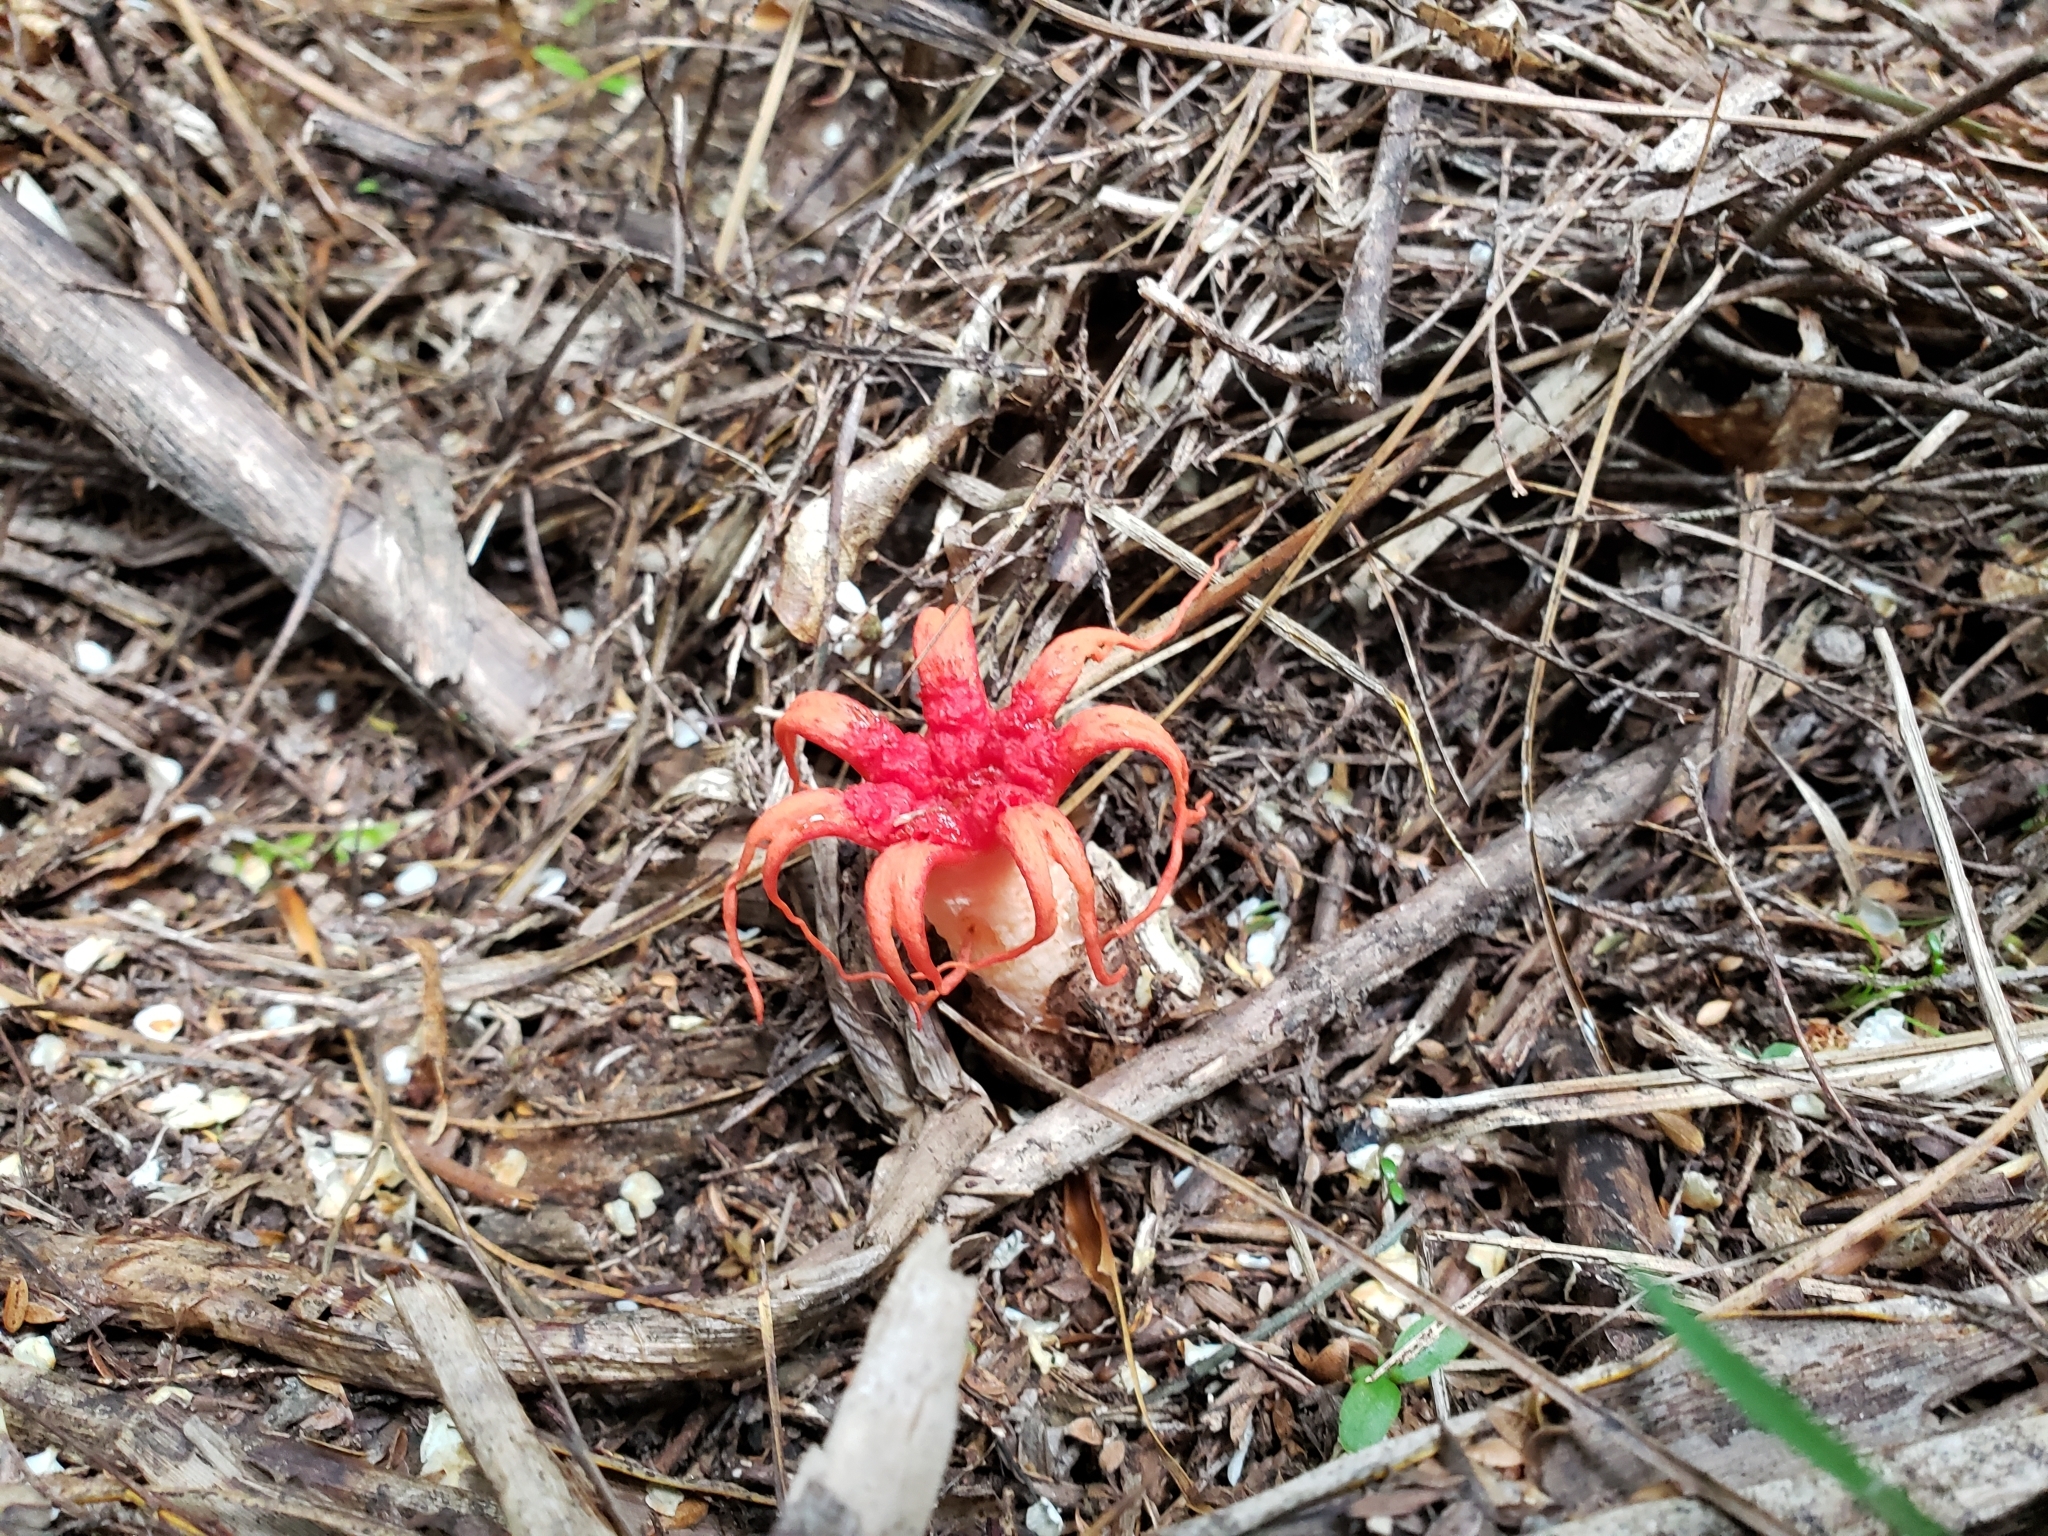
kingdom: Fungi
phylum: Basidiomycota
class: Agaricomycetes
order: Phallales
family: Phallaceae
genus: Aseroe
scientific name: Aseroe rubra
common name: Starfish fungus
